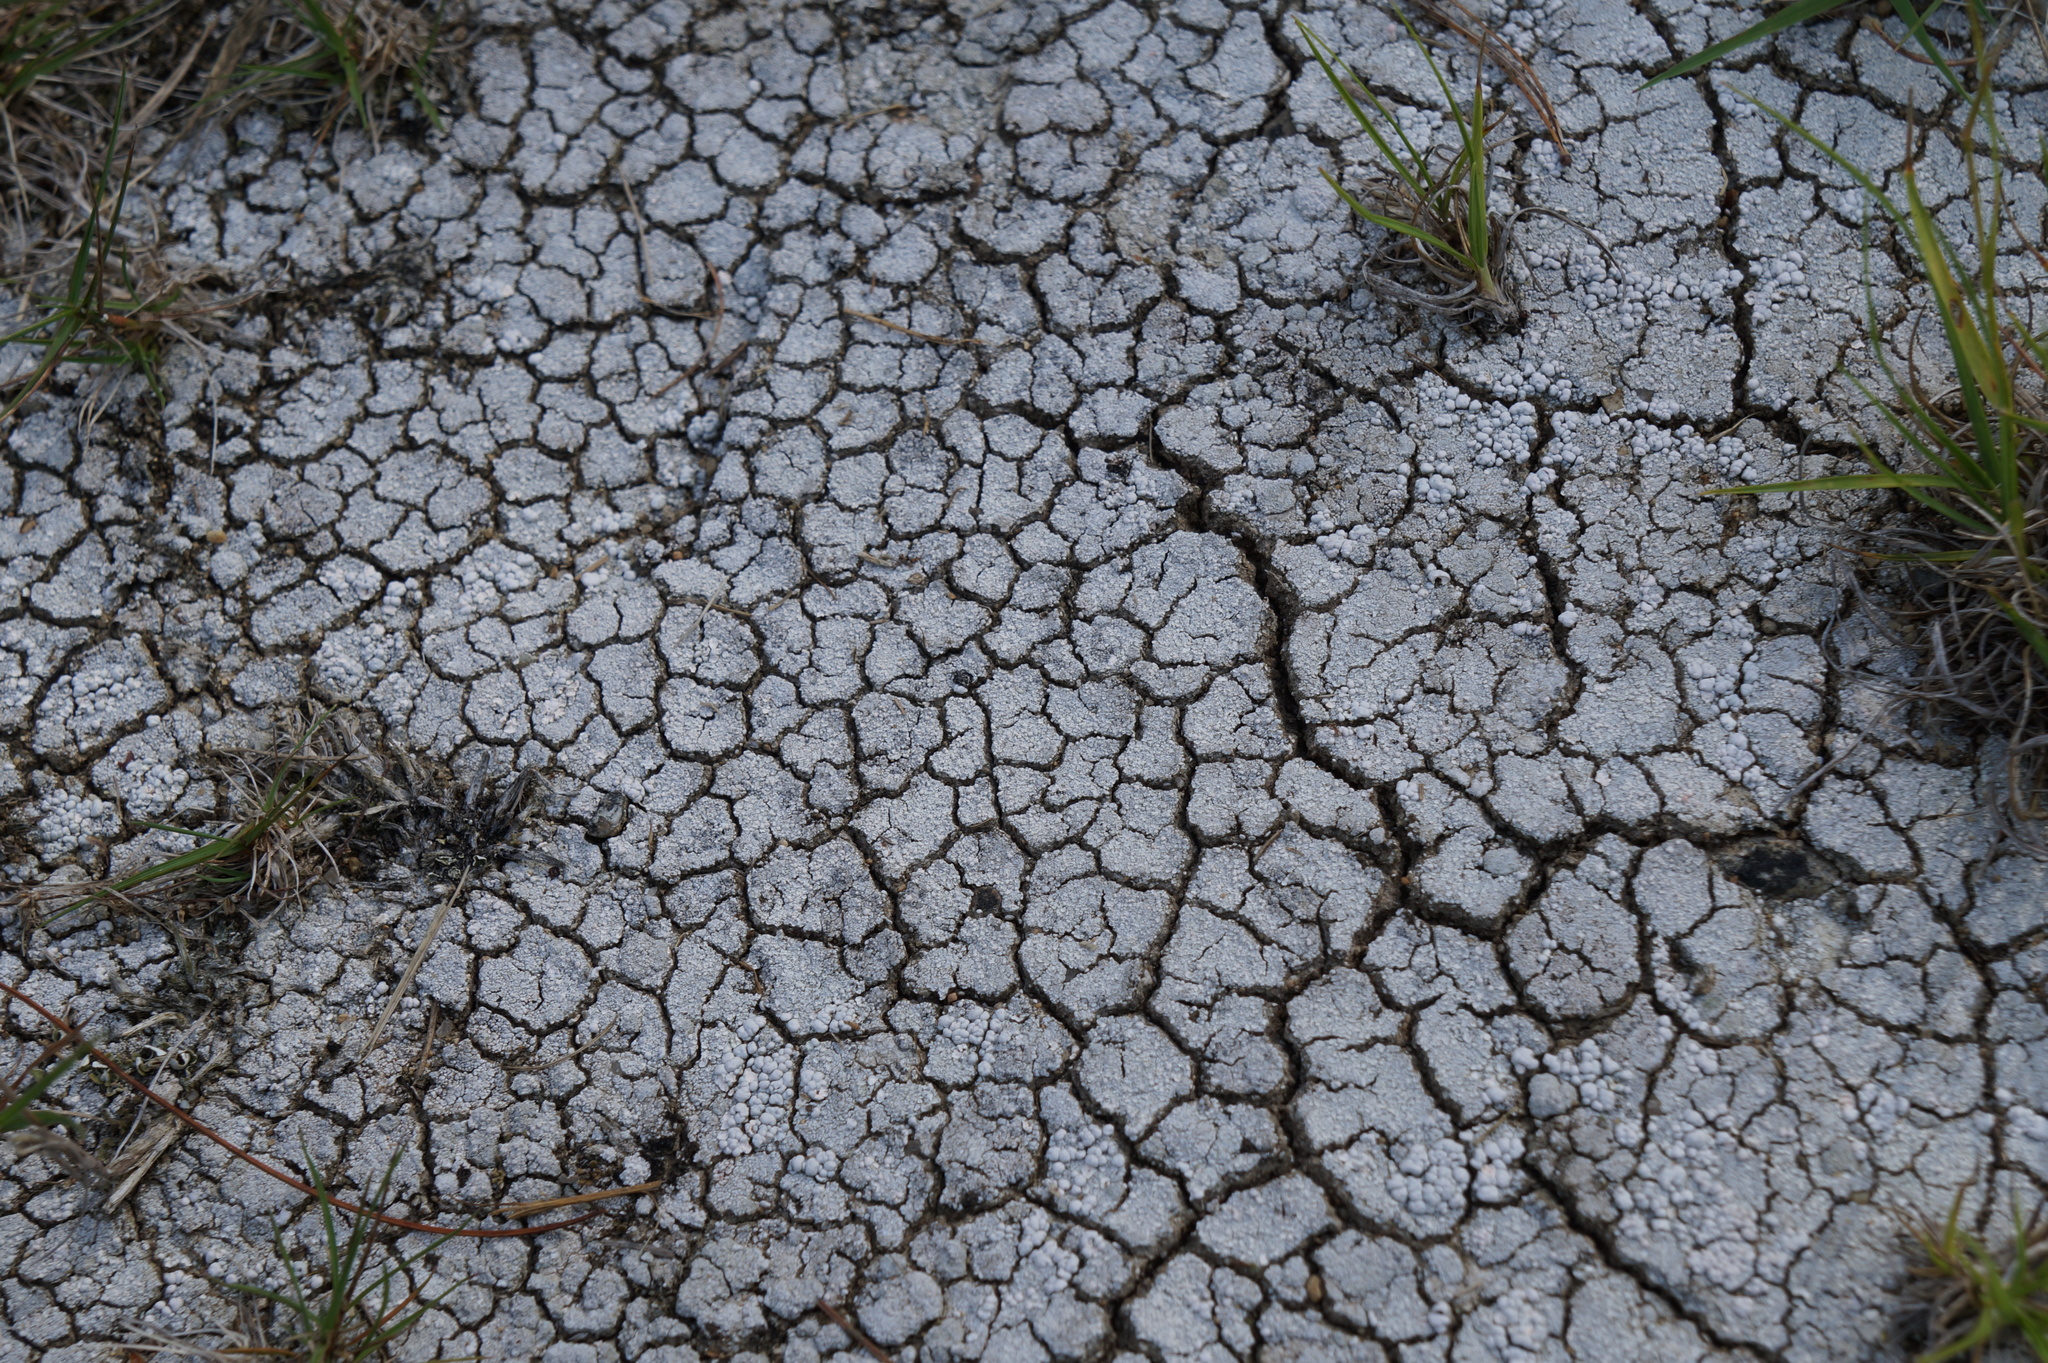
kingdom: Fungi
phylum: Ascomycota
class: Lecanoromycetes
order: Pertusariales
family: Icmadophilaceae
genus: Dibaeis
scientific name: Dibaeis baeomyces
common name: Pink earth lichen
